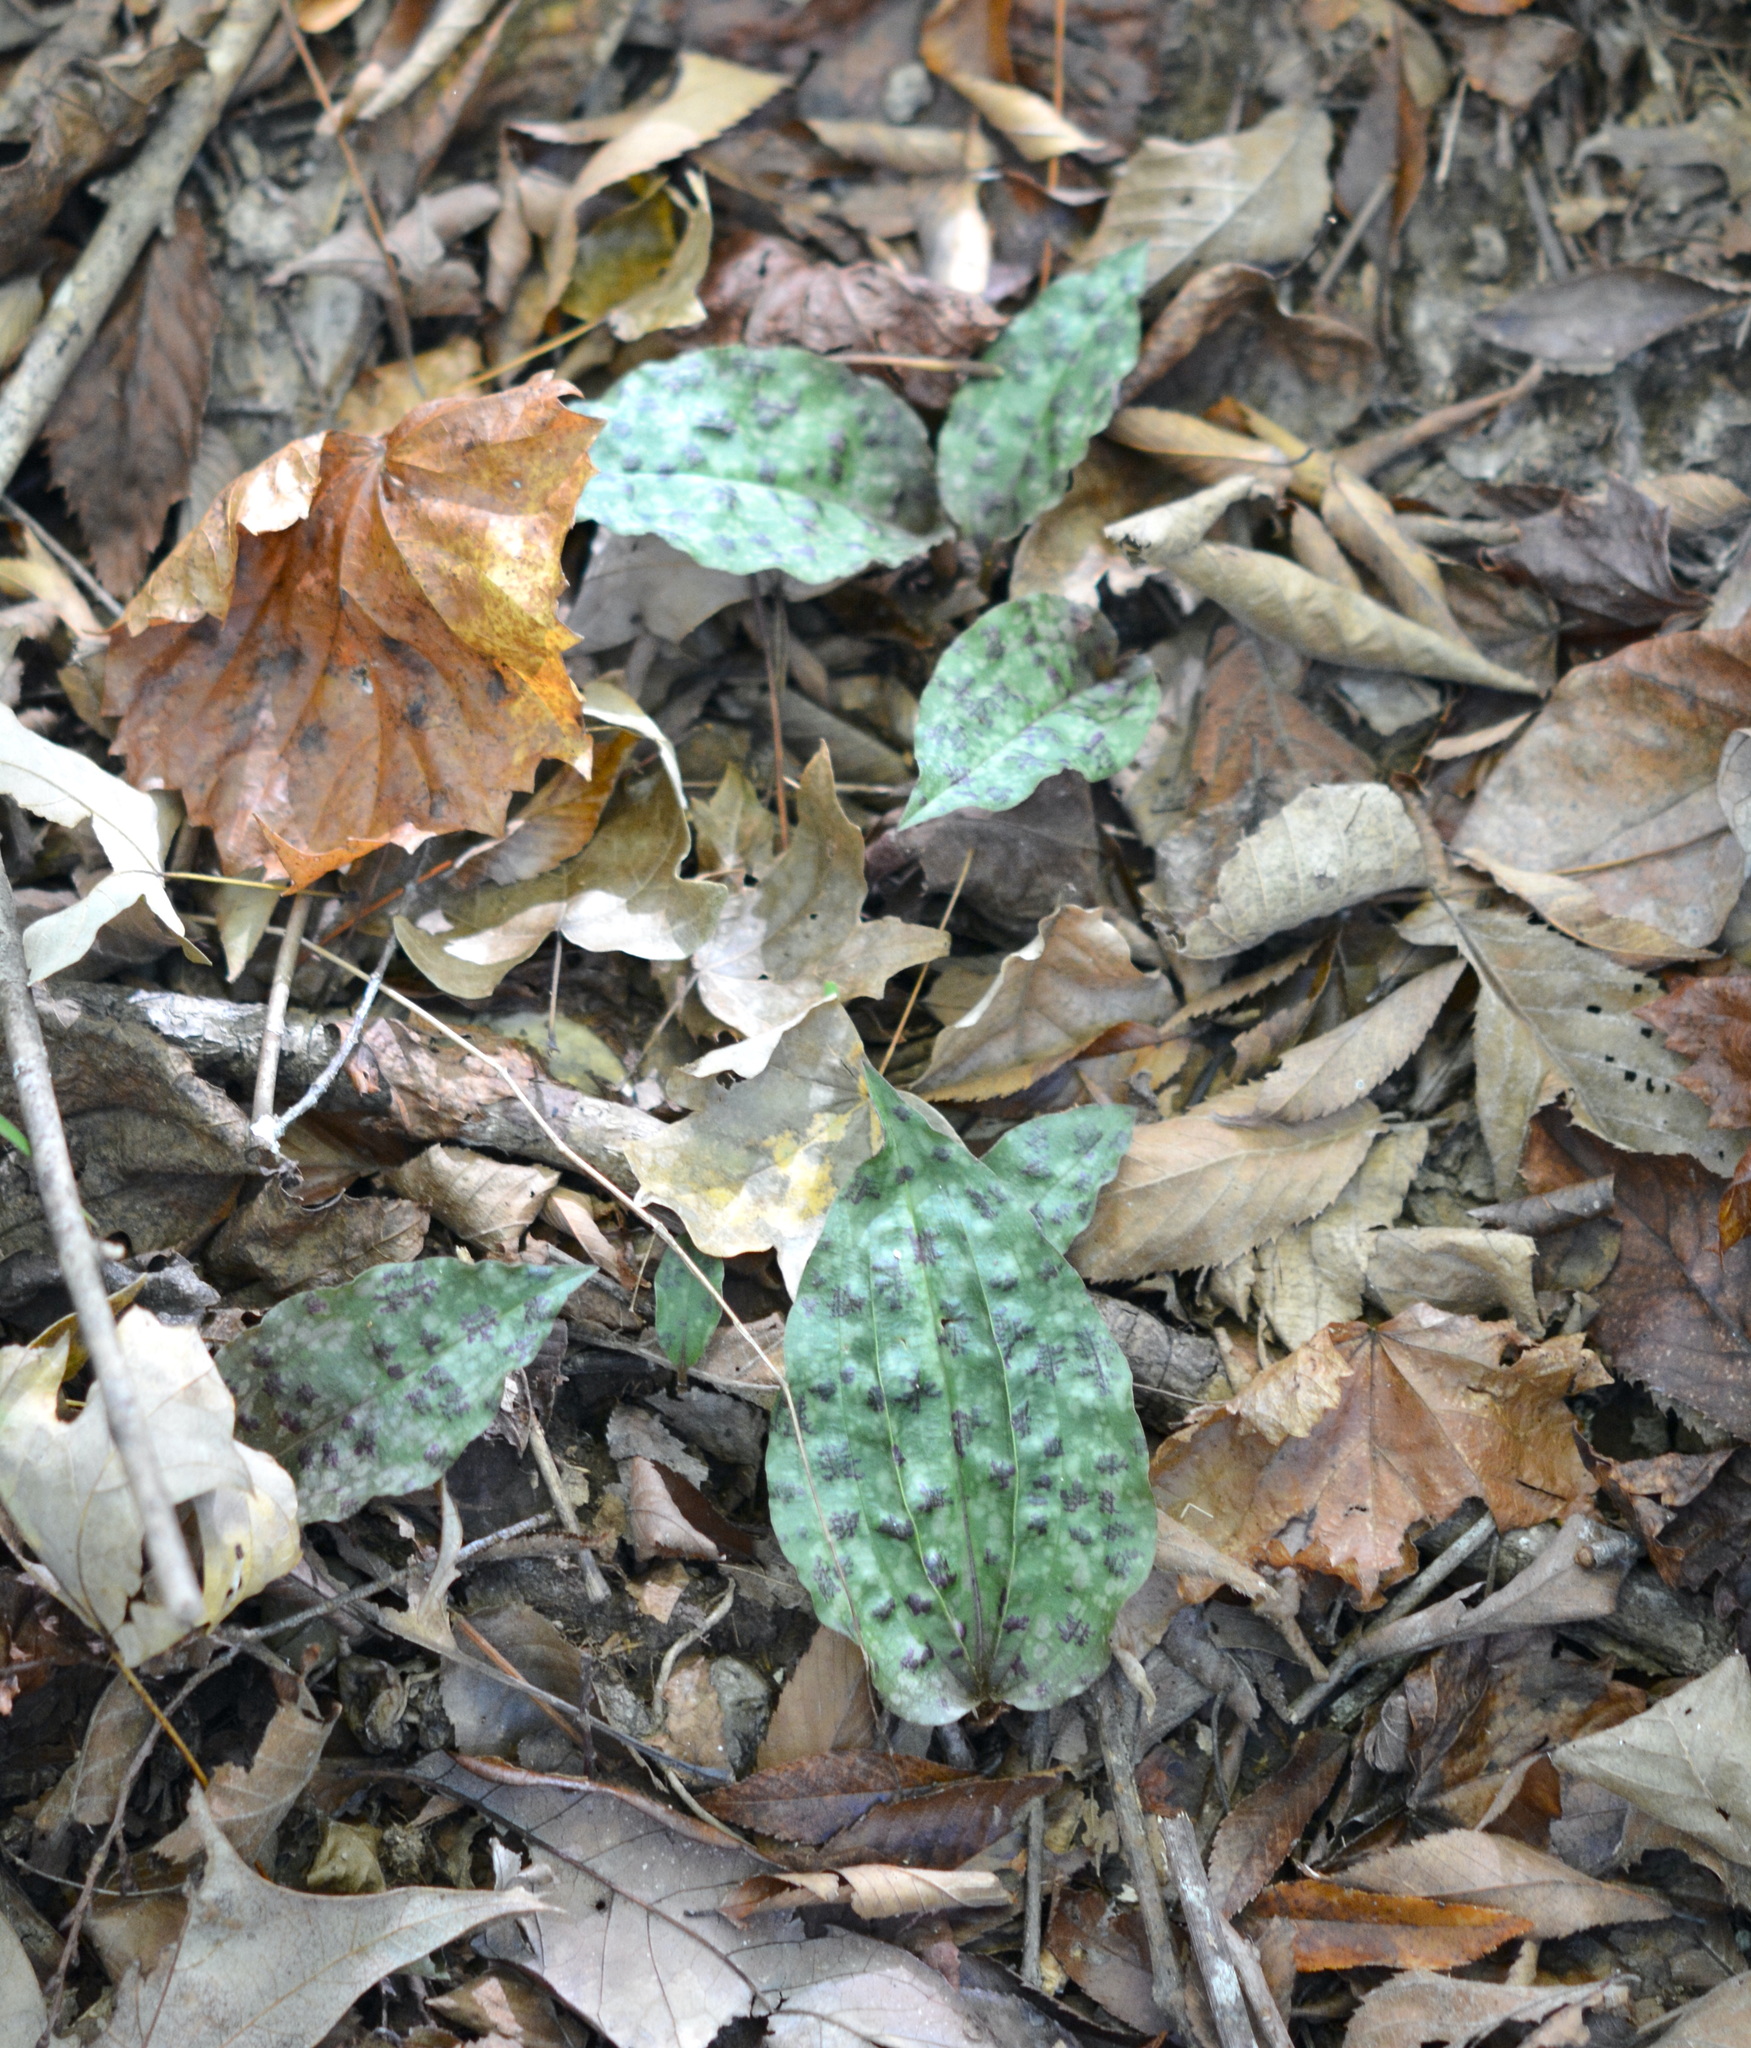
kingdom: Plantae
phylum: Tracheophyta
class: Liliopsida
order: Asparagales
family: Orchidaceae
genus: Tipularia
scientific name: Tipularia discolor
